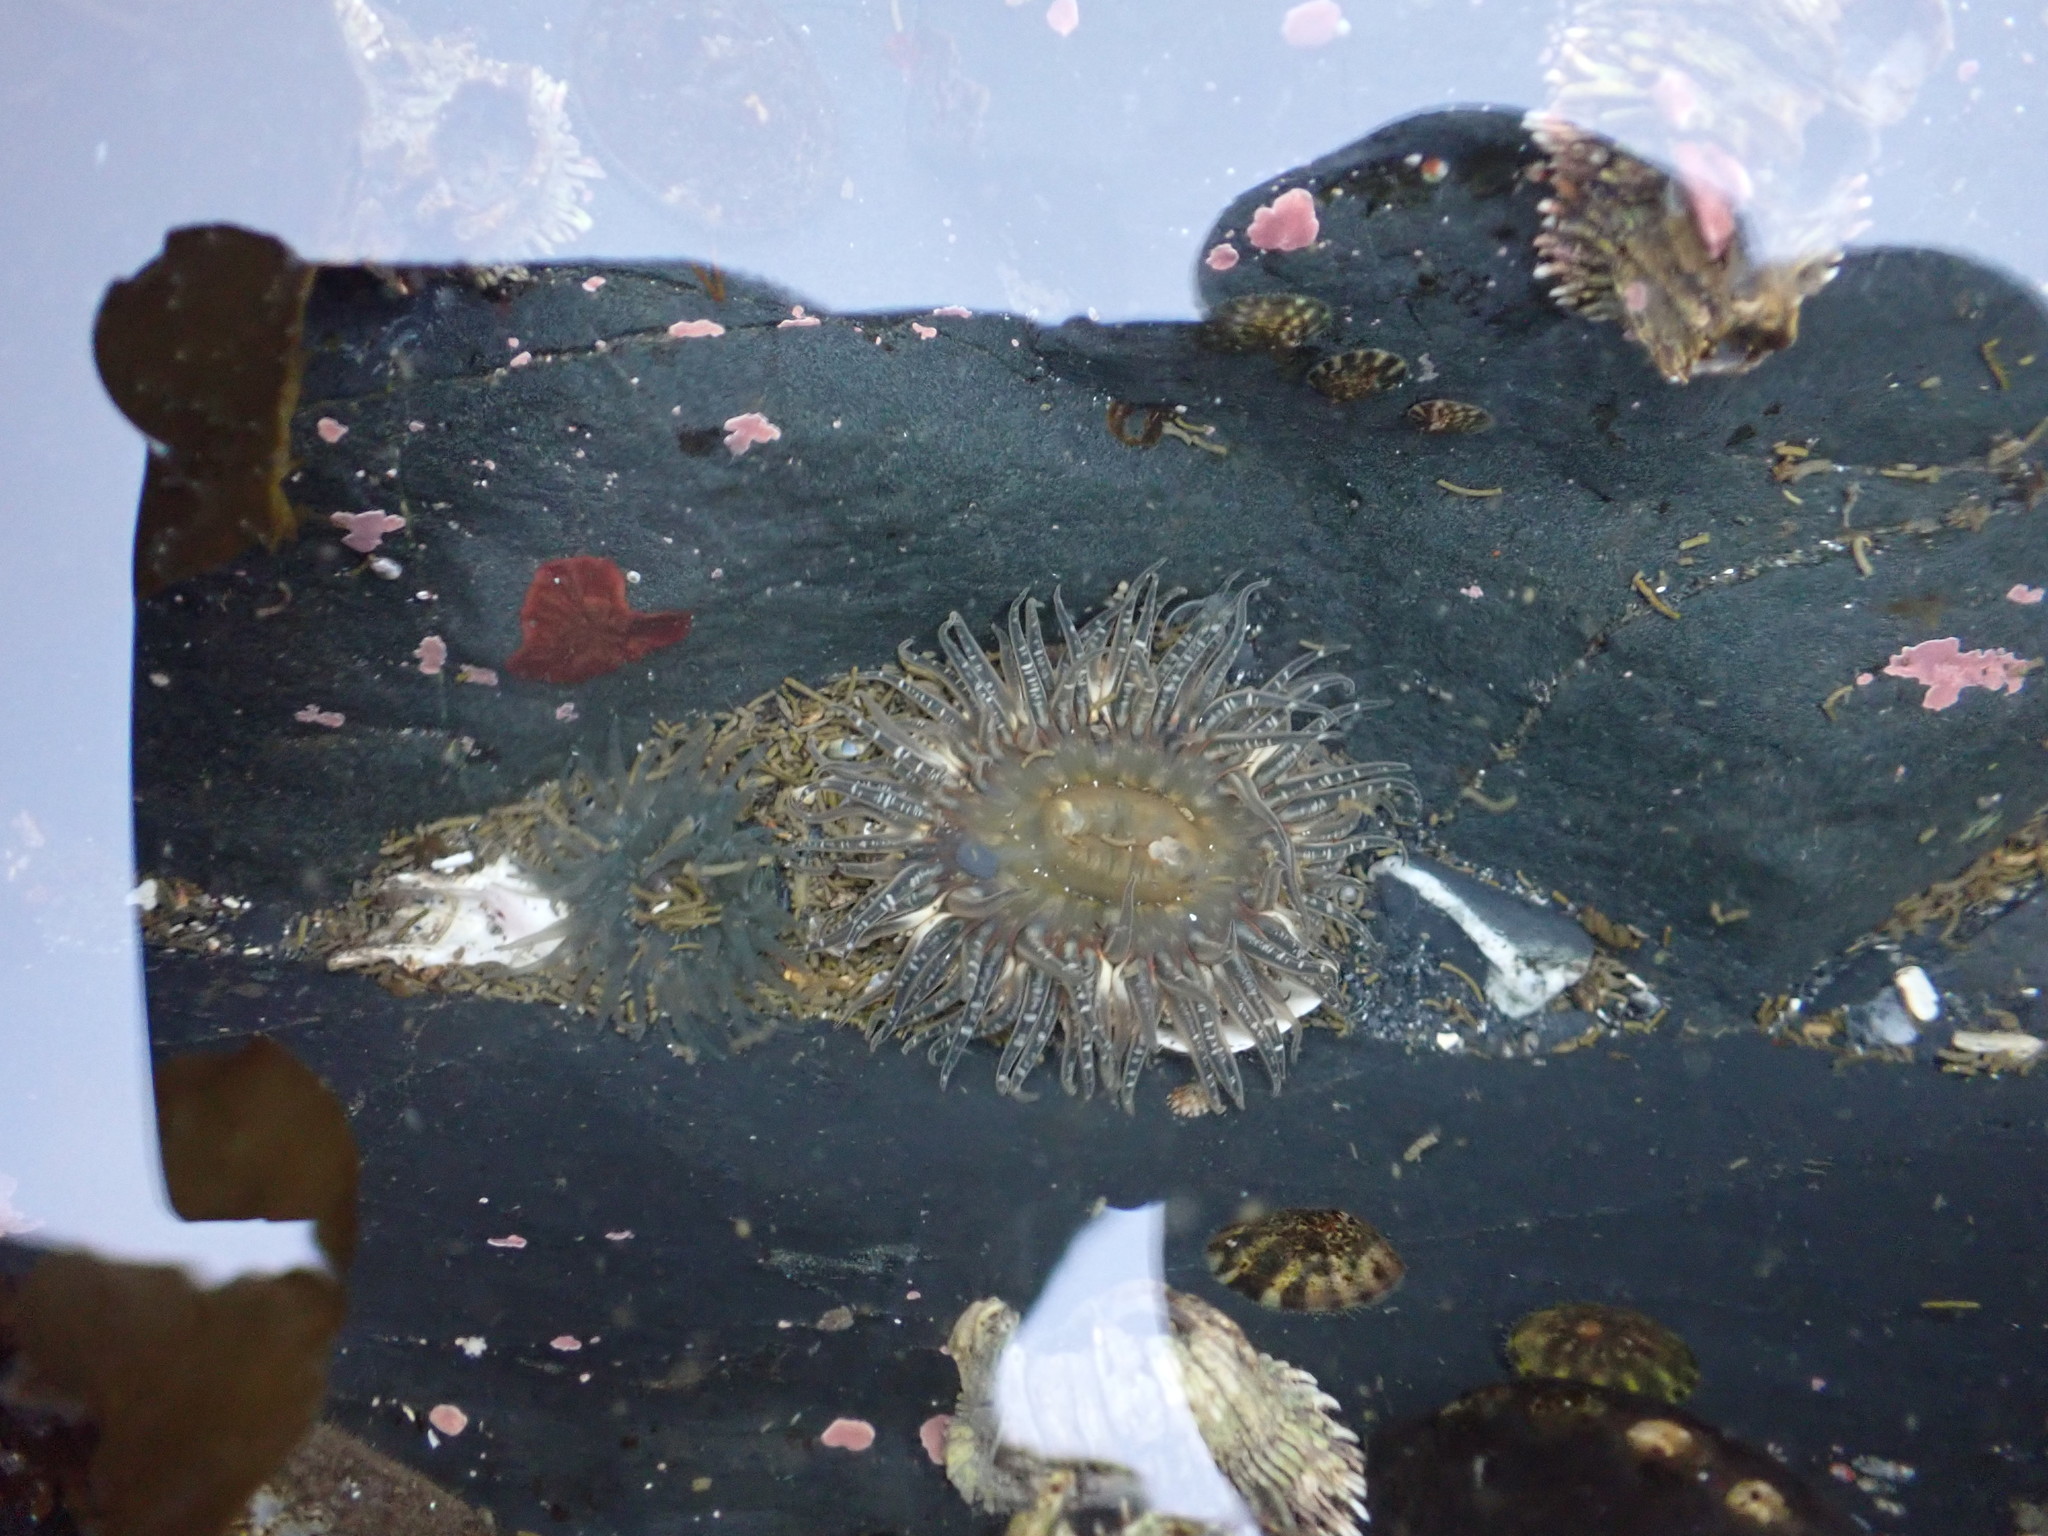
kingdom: Animalia
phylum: Cnidaria
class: Anthozoa
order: Actiniaria
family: Actiniidae
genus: Anthopleura
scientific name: Anthopleura artemisia
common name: Buried sea anemone
